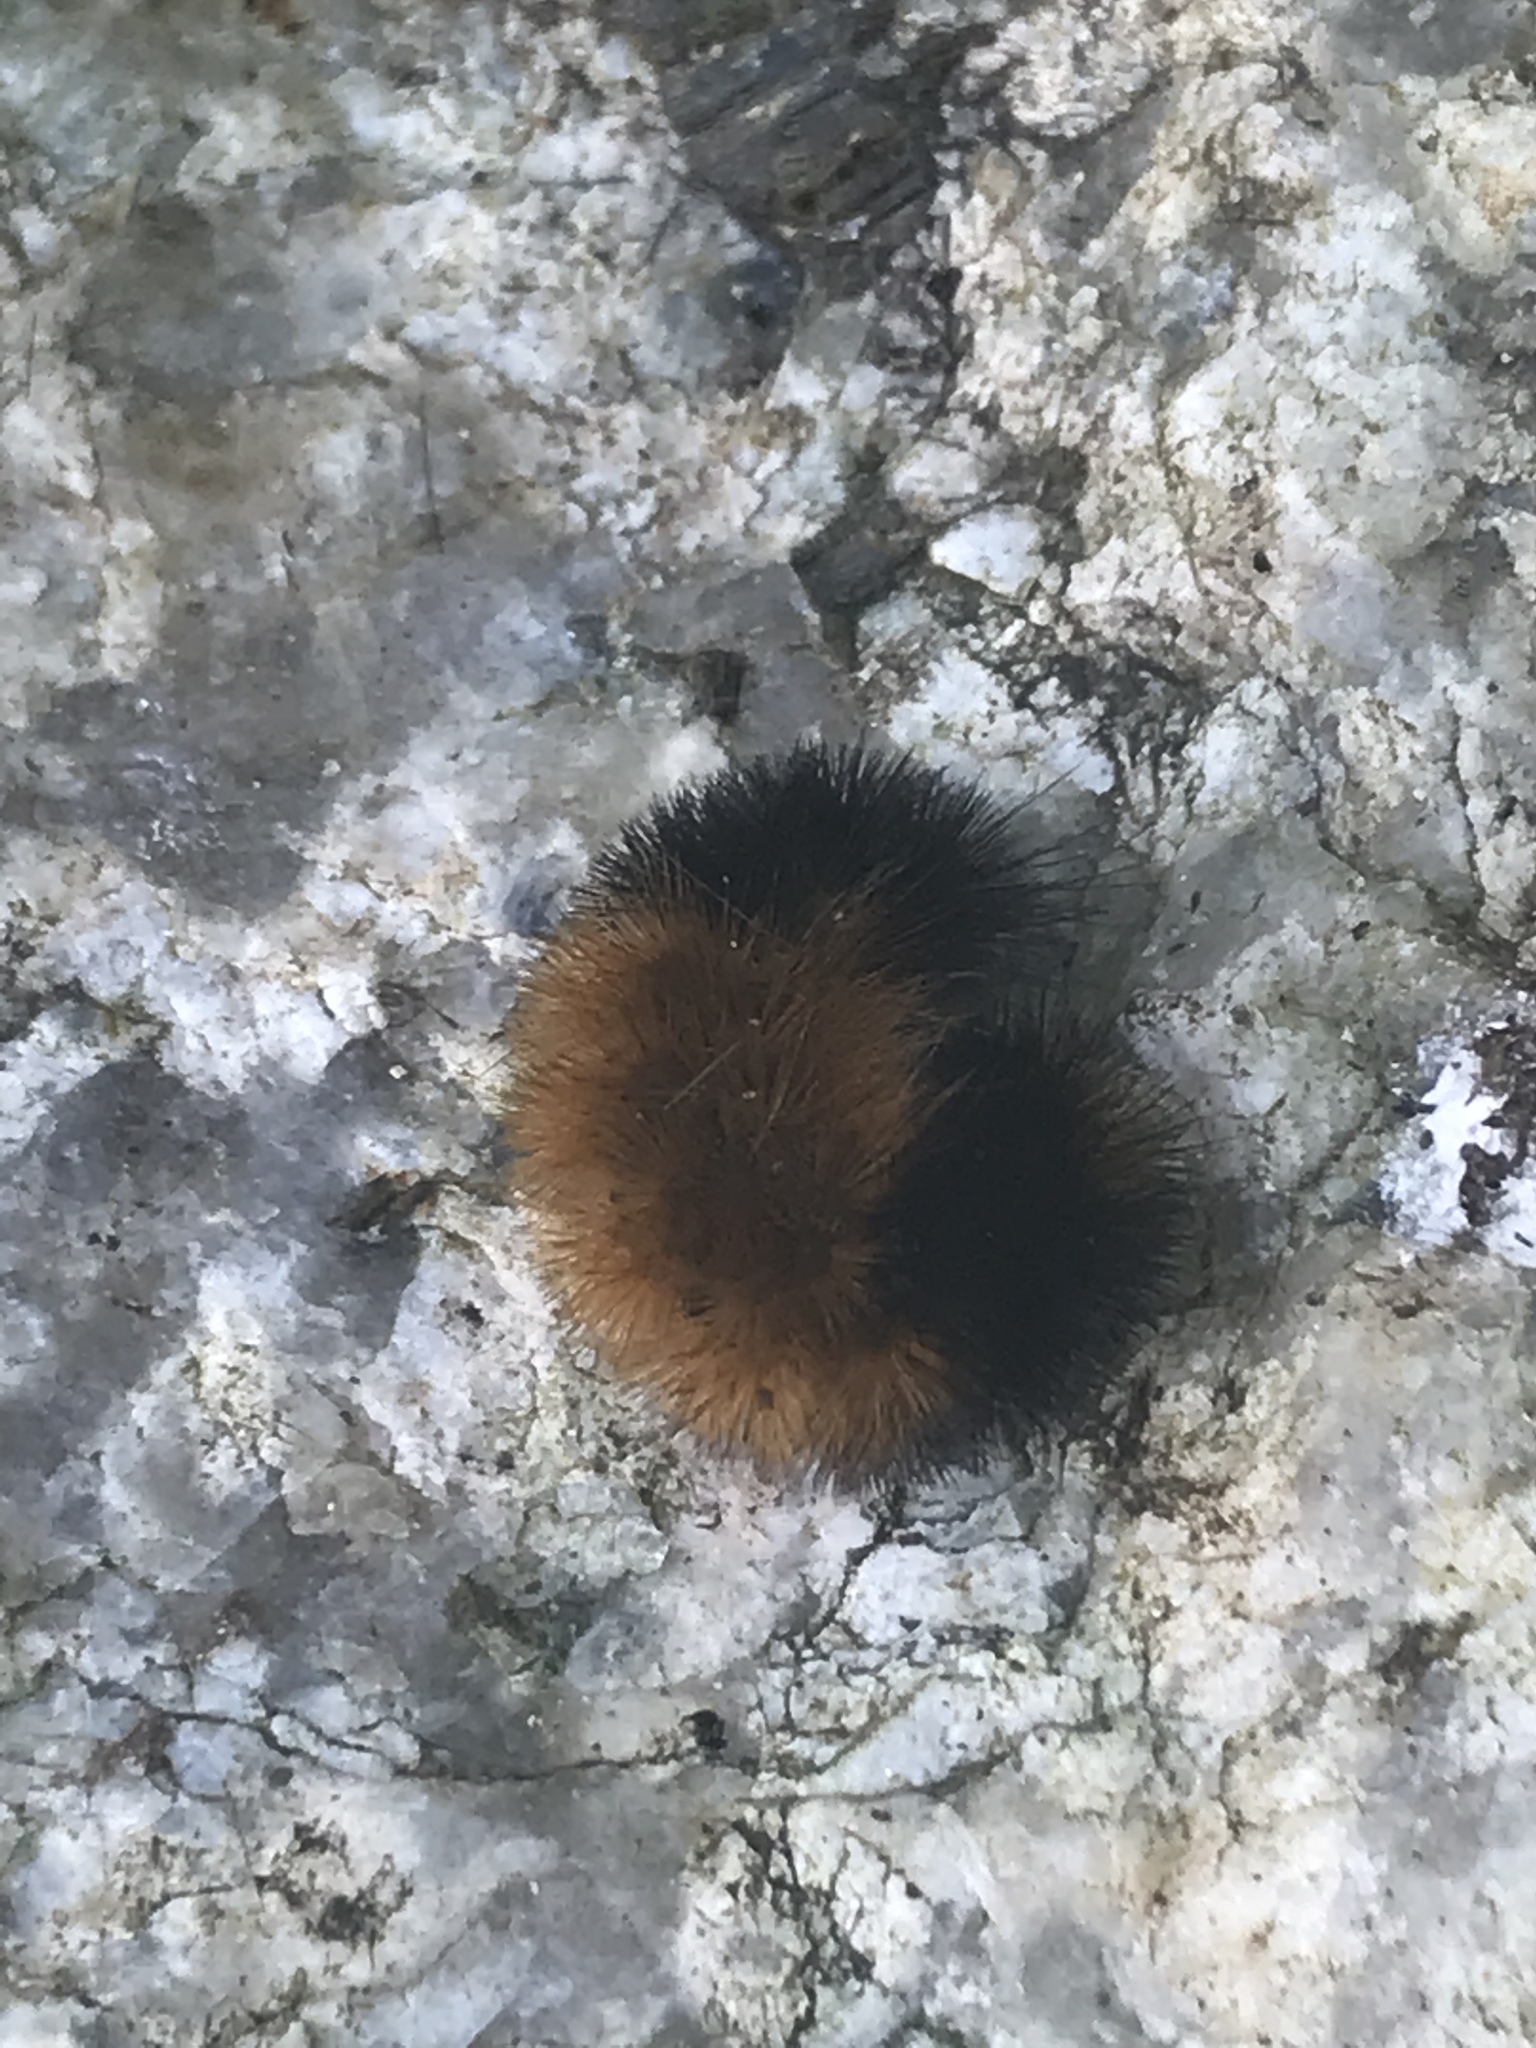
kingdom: Animalia
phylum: Arthropoda
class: Insecta
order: Lepidoptera
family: Erebidae
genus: Pyrrharctia
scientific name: Pyrrharctia isabella
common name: Isabella tiger moth
